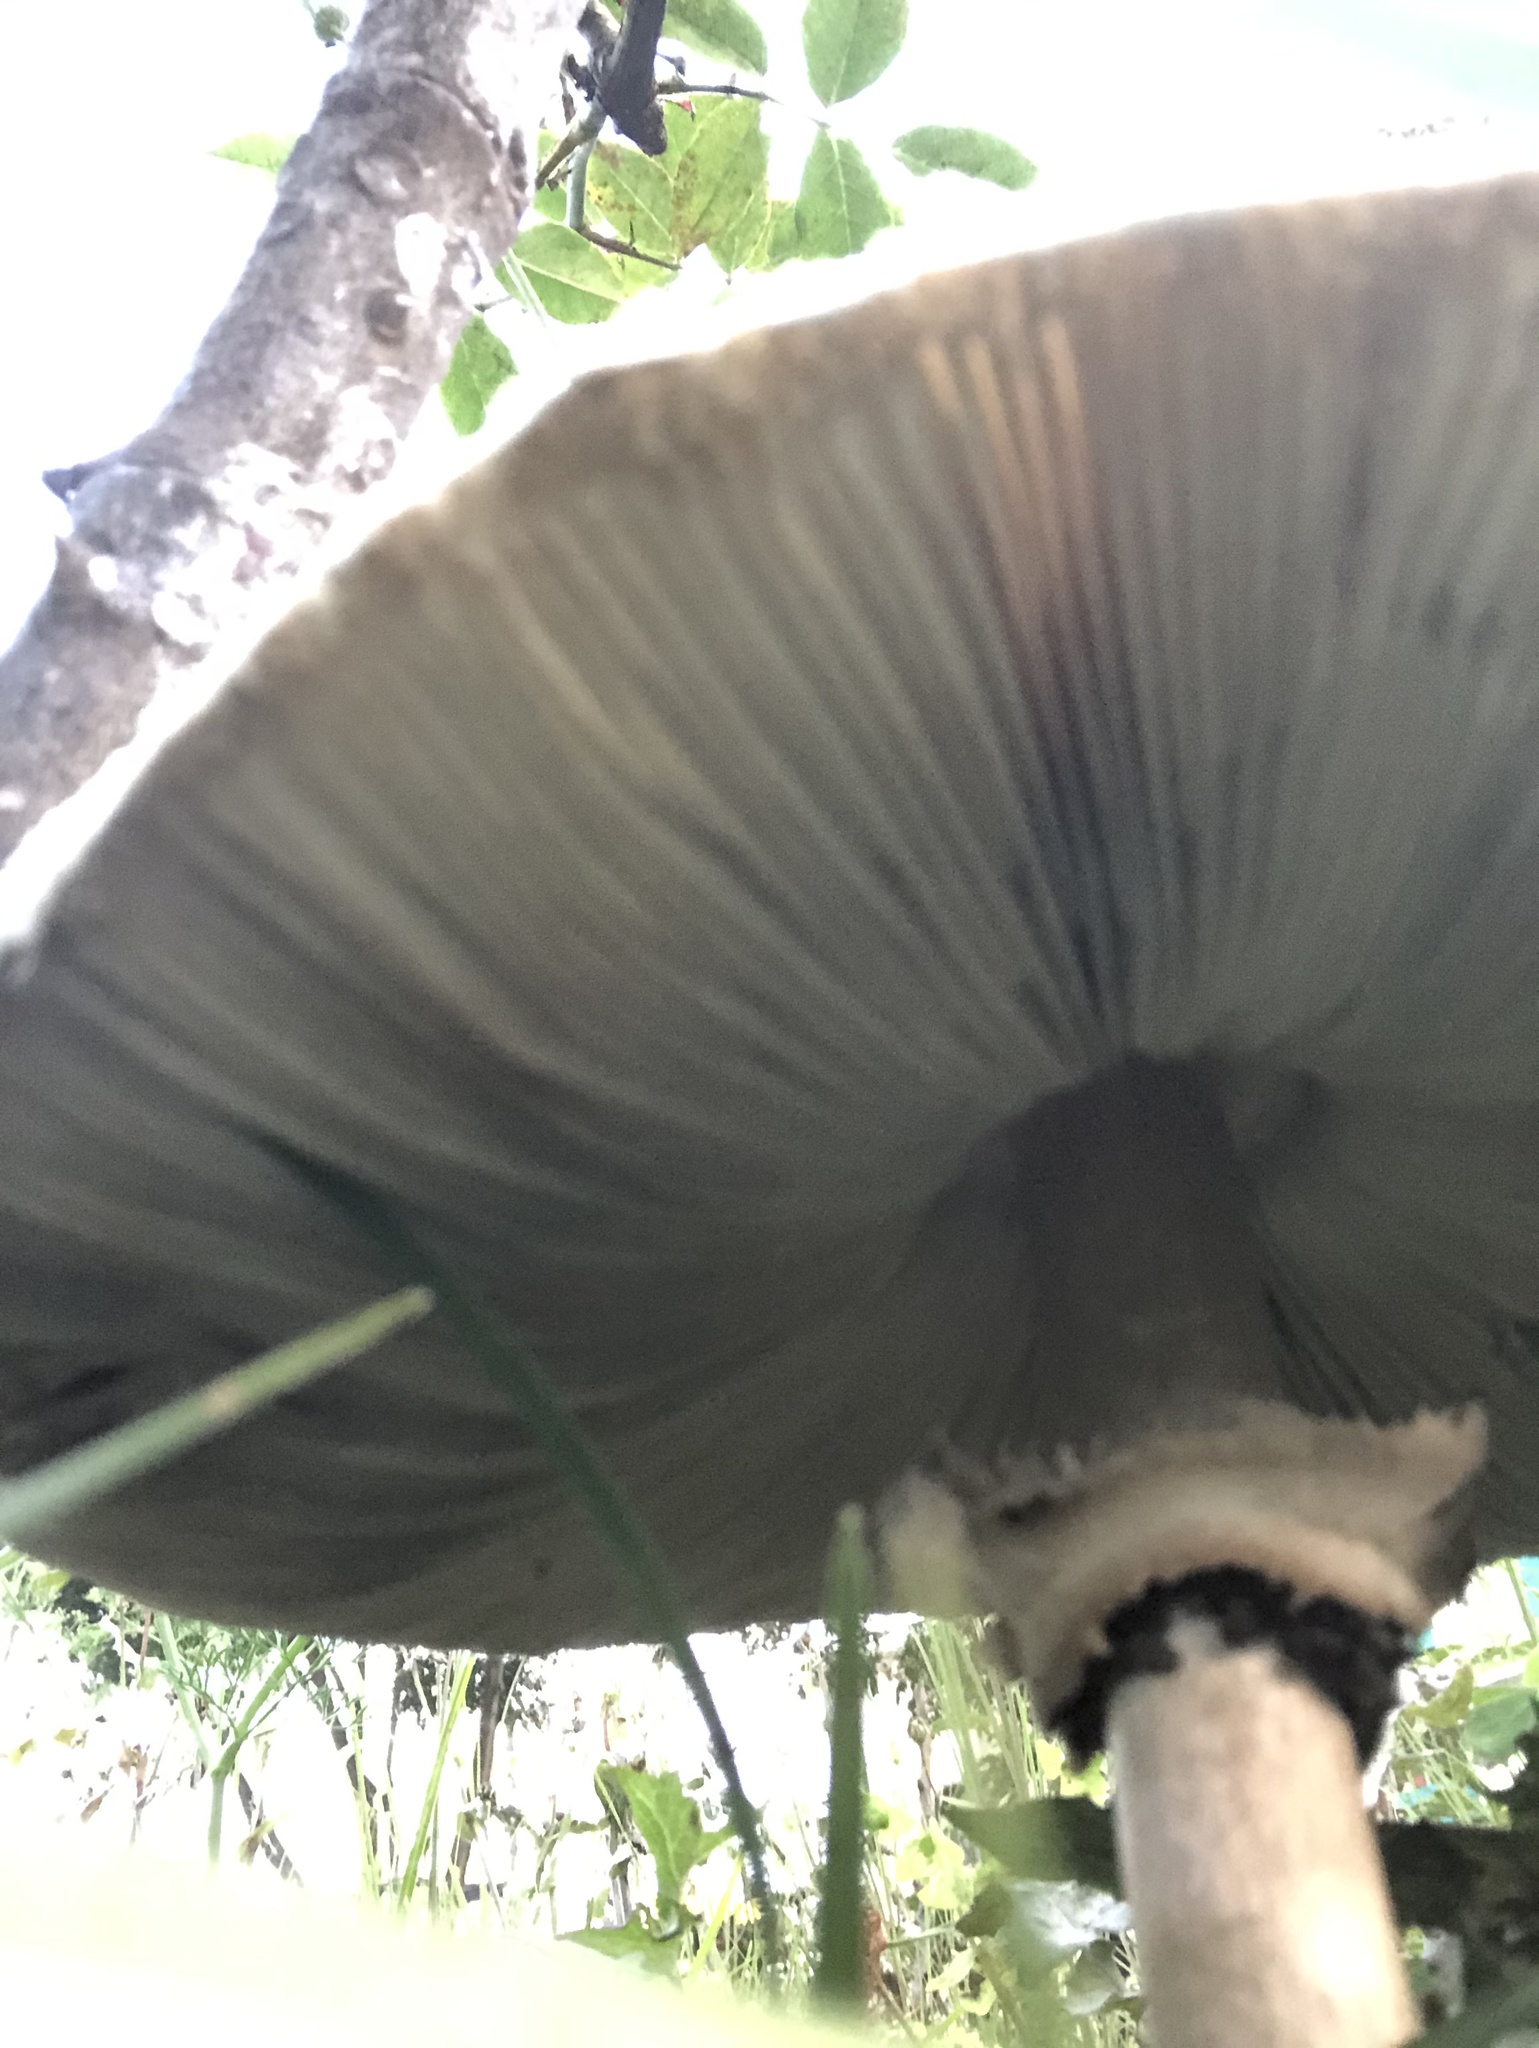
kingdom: Fungi
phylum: Basidiomycota
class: Agaricomycetes
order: Agaricales
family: Agaricaceae
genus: Chlorophyllum
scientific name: Chlorophyllum molybdites
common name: False parasol
